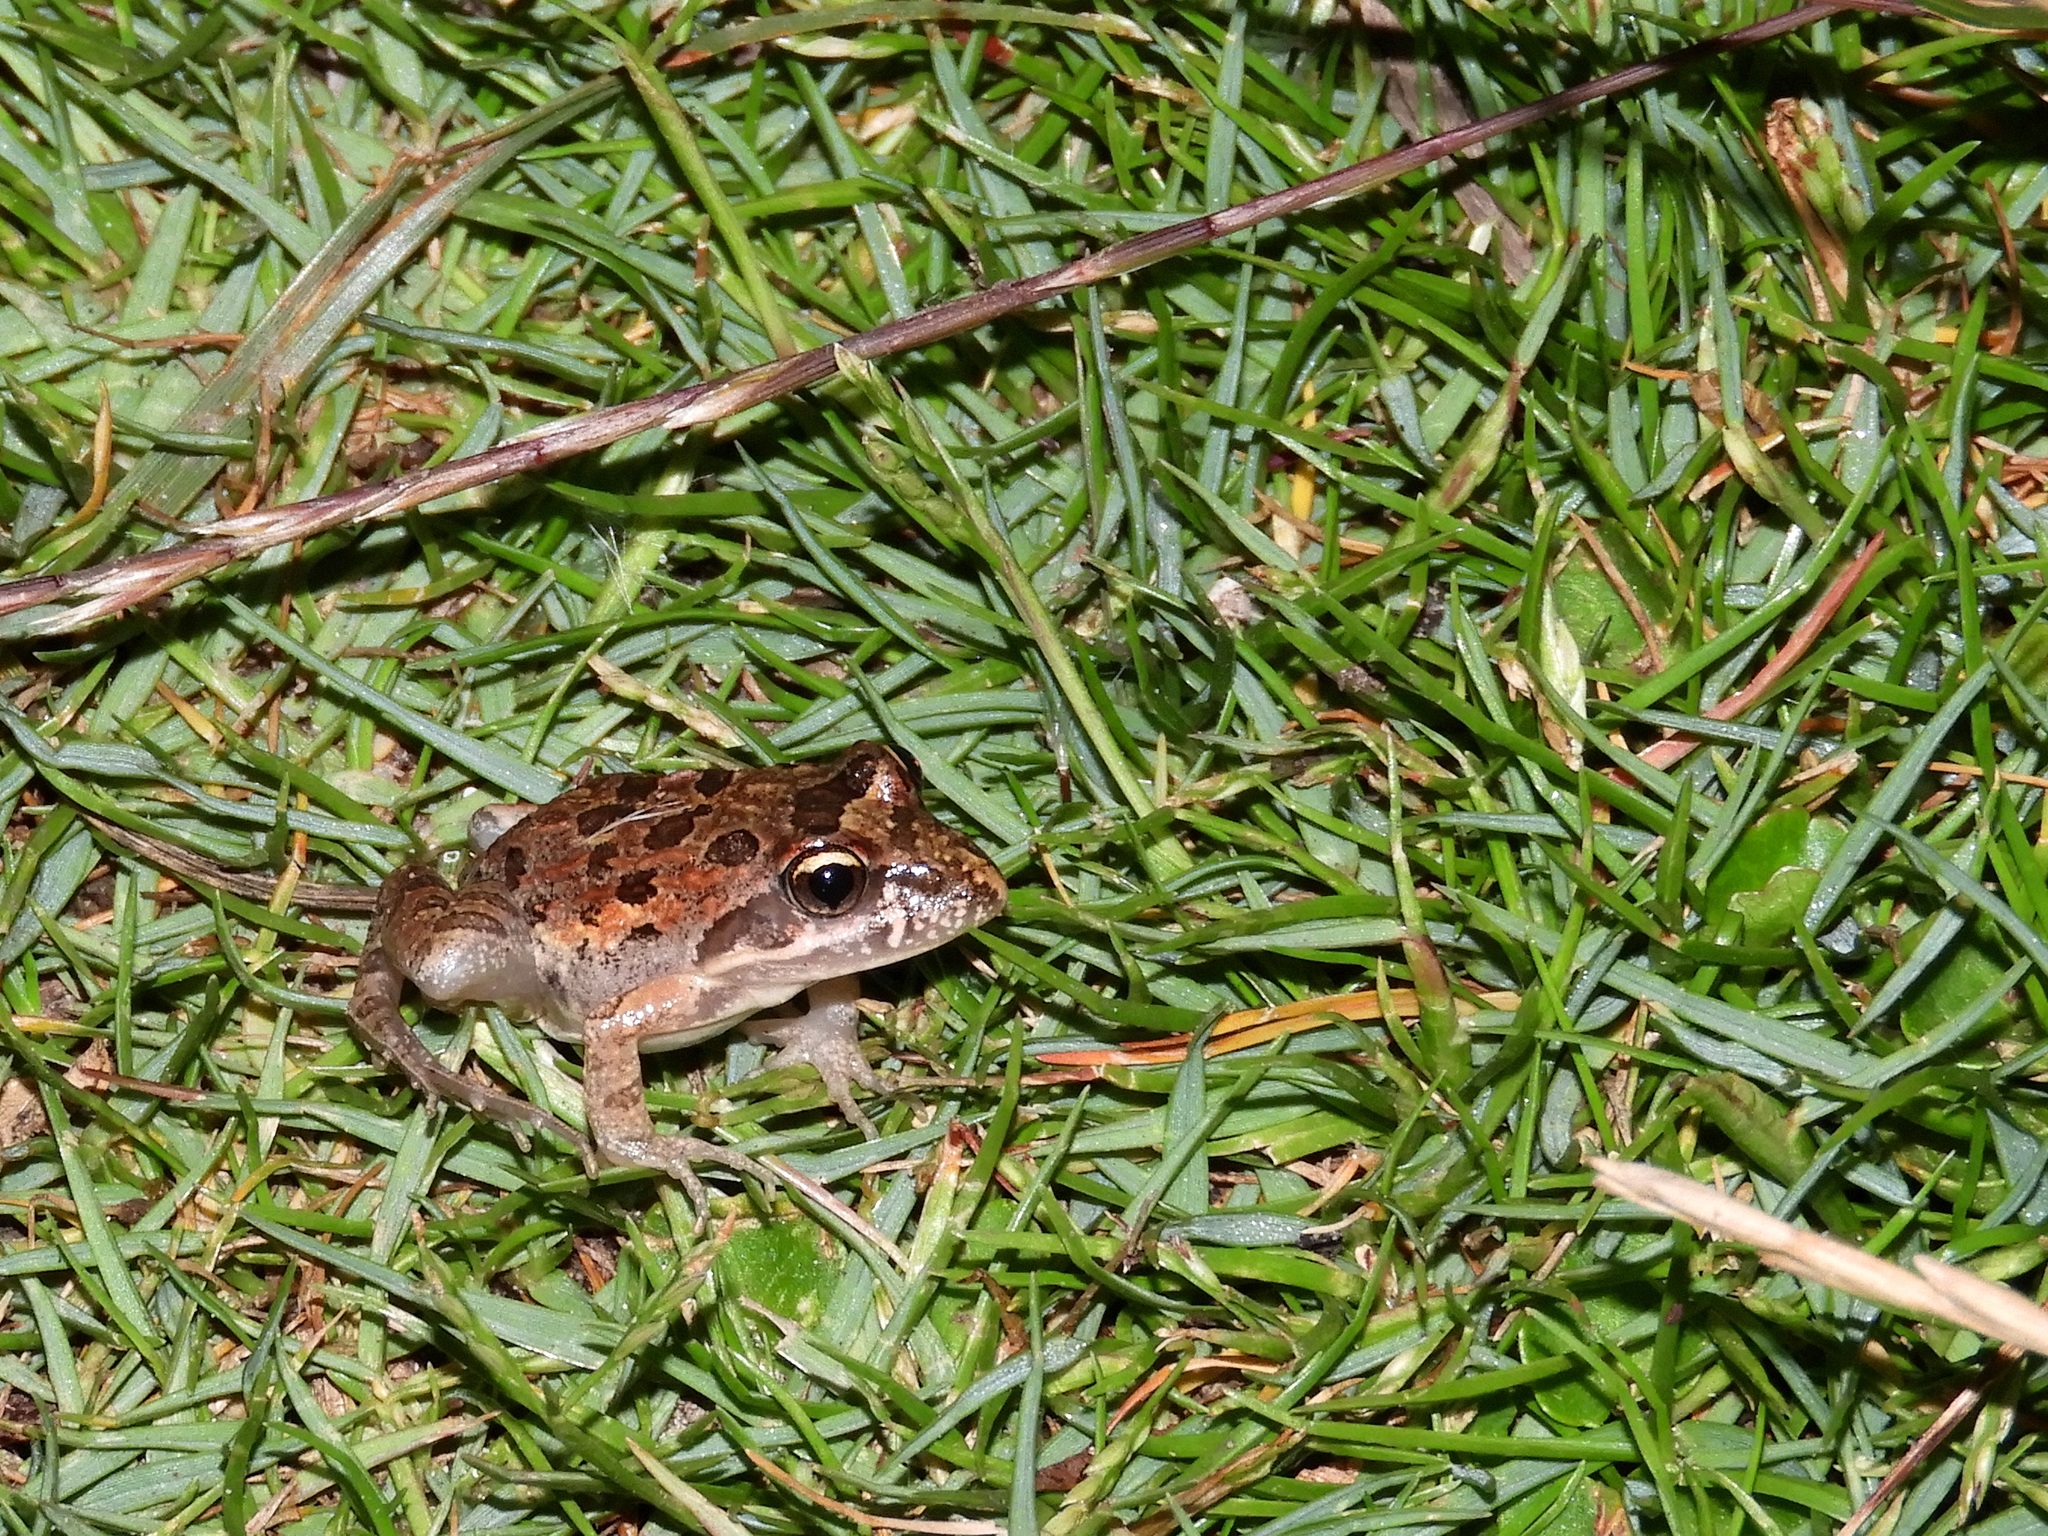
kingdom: Animalia
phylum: Chordata
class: Amphibia
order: Anura
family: Pyxicephalidae
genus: Strongylopus
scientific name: Strongylopus grayii
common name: Gray's stream frog
